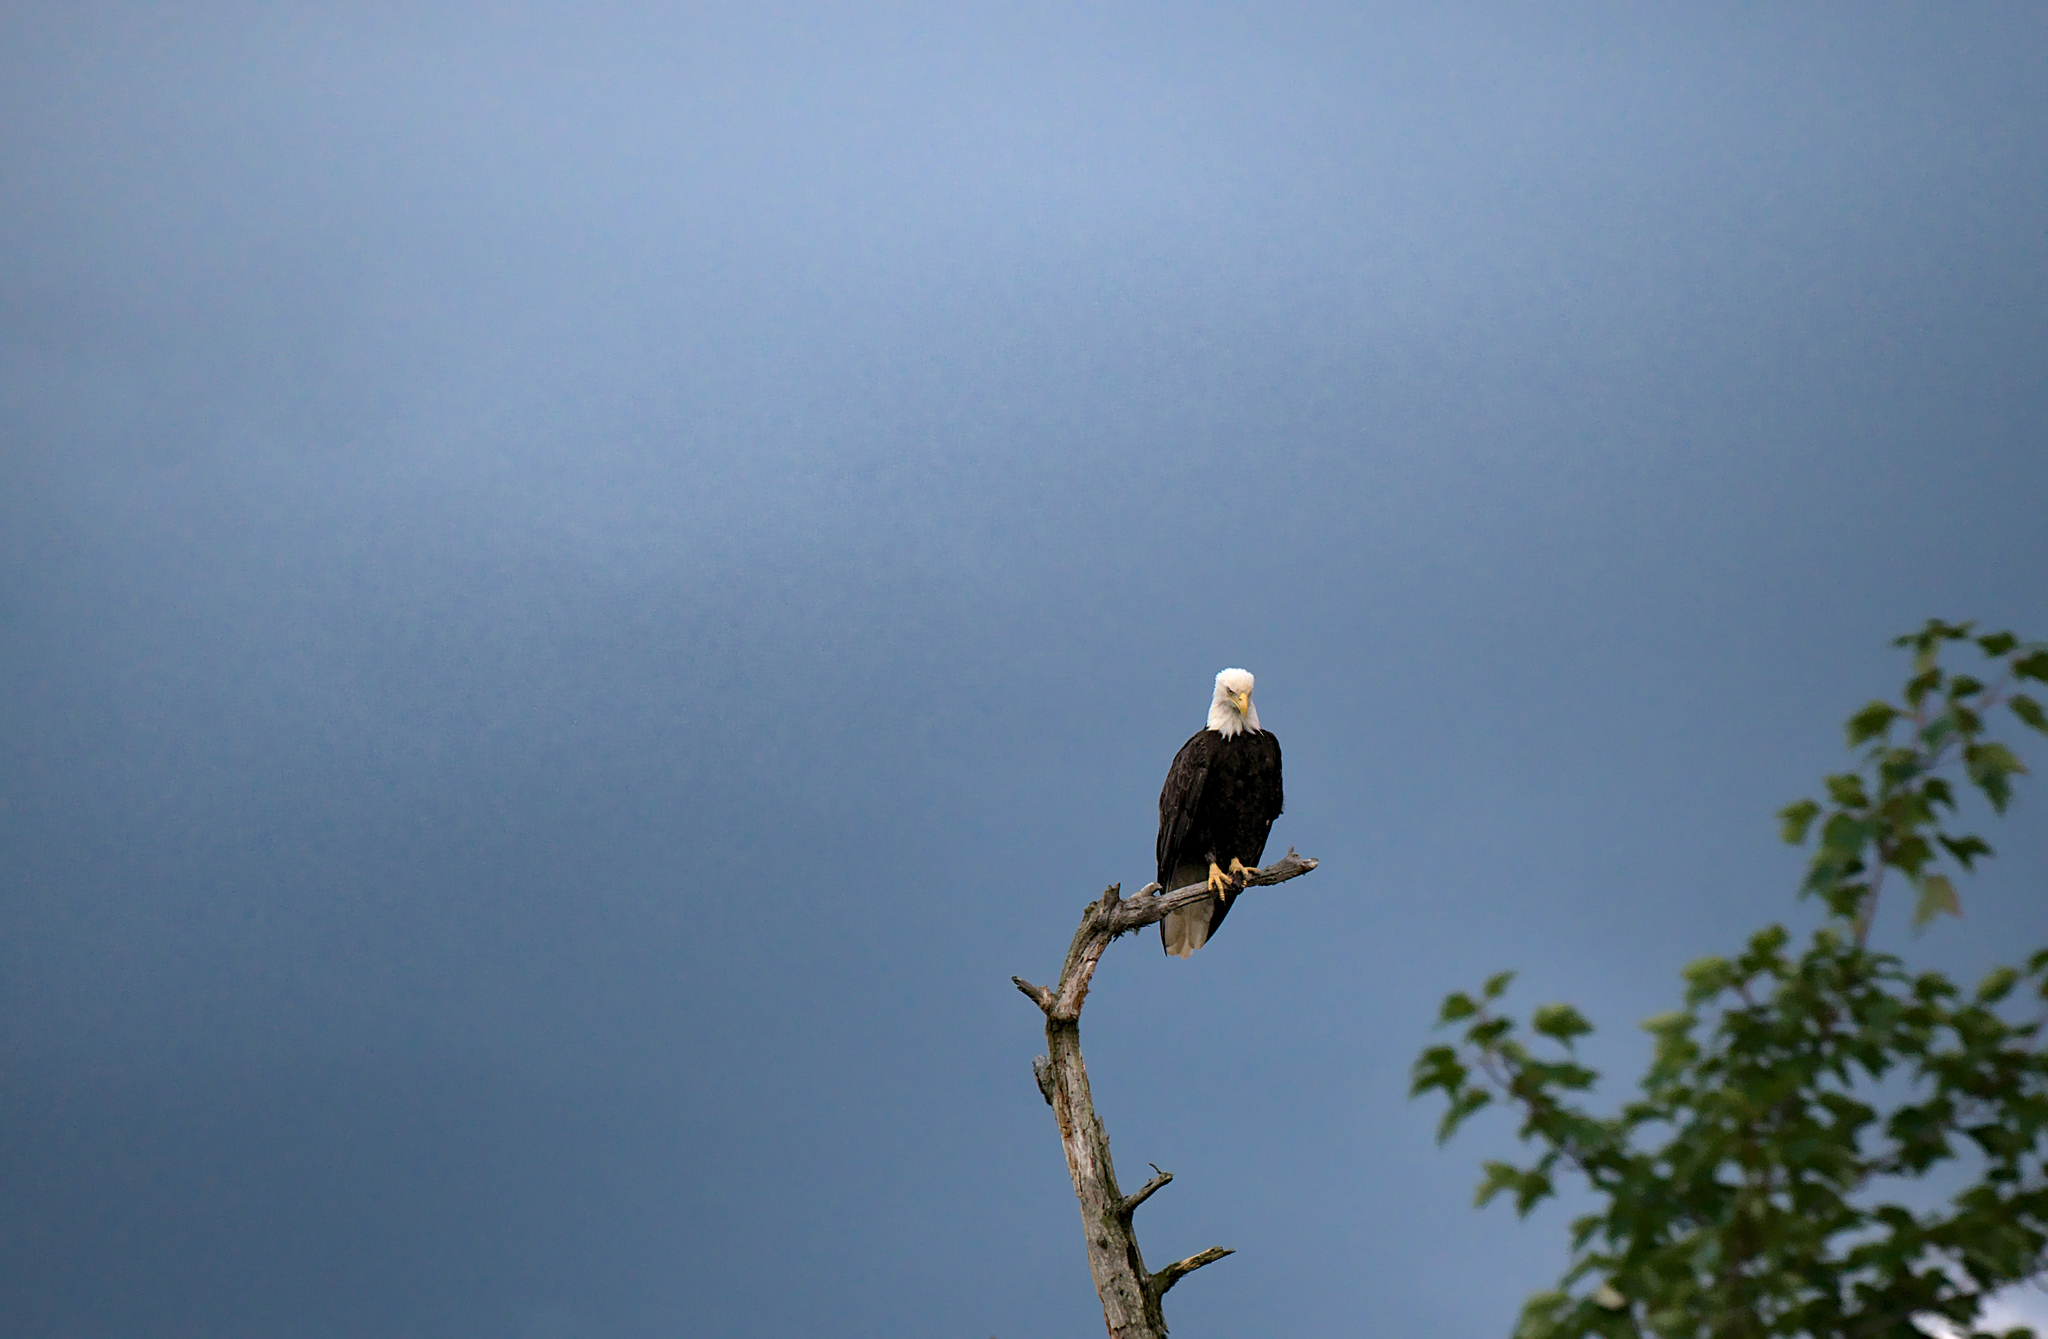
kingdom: Animalia
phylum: Chordata
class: Aves
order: Accipitriformes
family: Accipitridae
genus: Haliaeetus
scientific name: Haliaeetus leucocephalus
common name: Bald eagle
